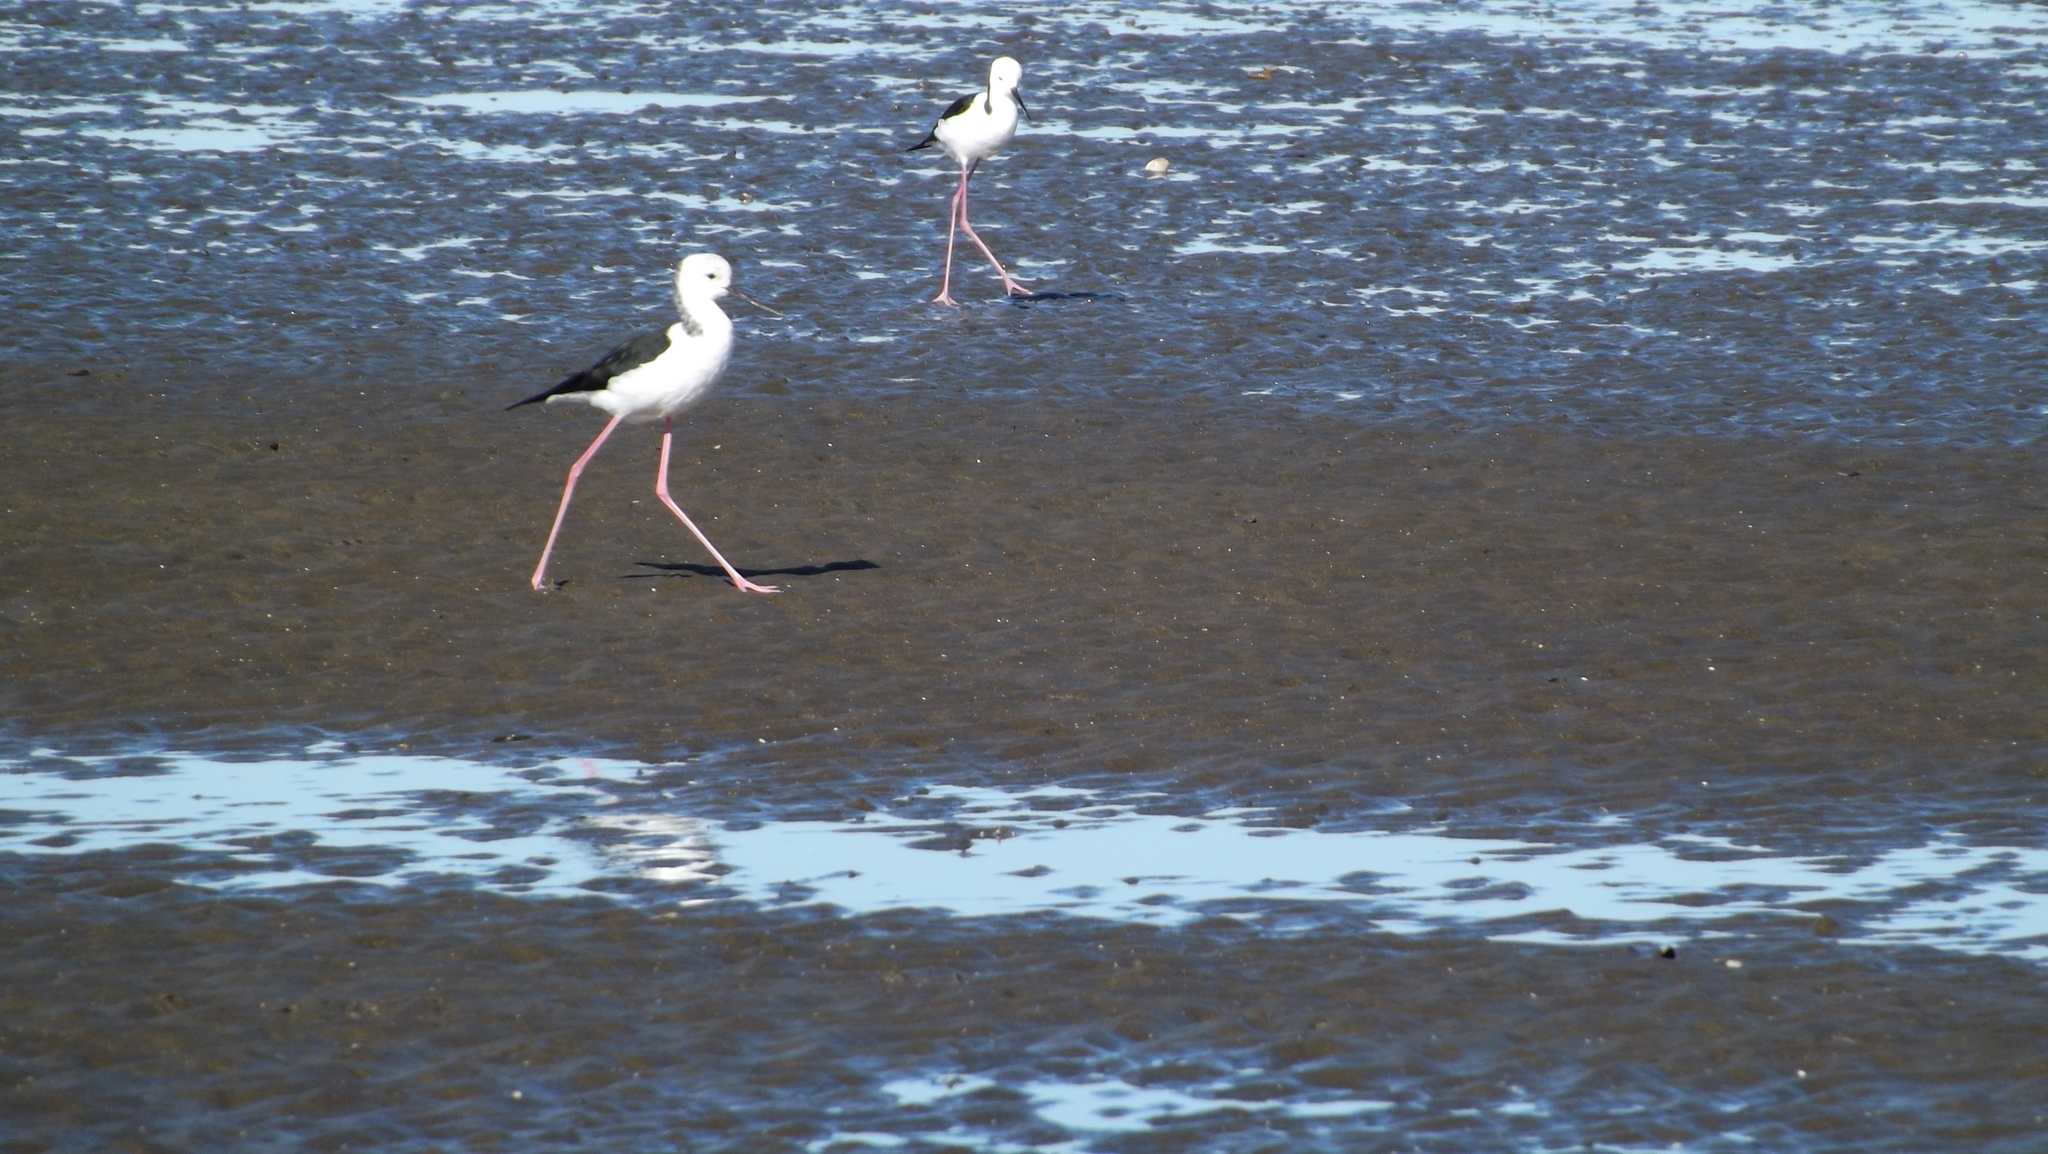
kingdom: Animalia
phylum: Chordata
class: Aves
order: Charadriiformes
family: Recurvirostridae
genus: Himantopus
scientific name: Himantopus leucocephalus
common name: White-headed stilt
